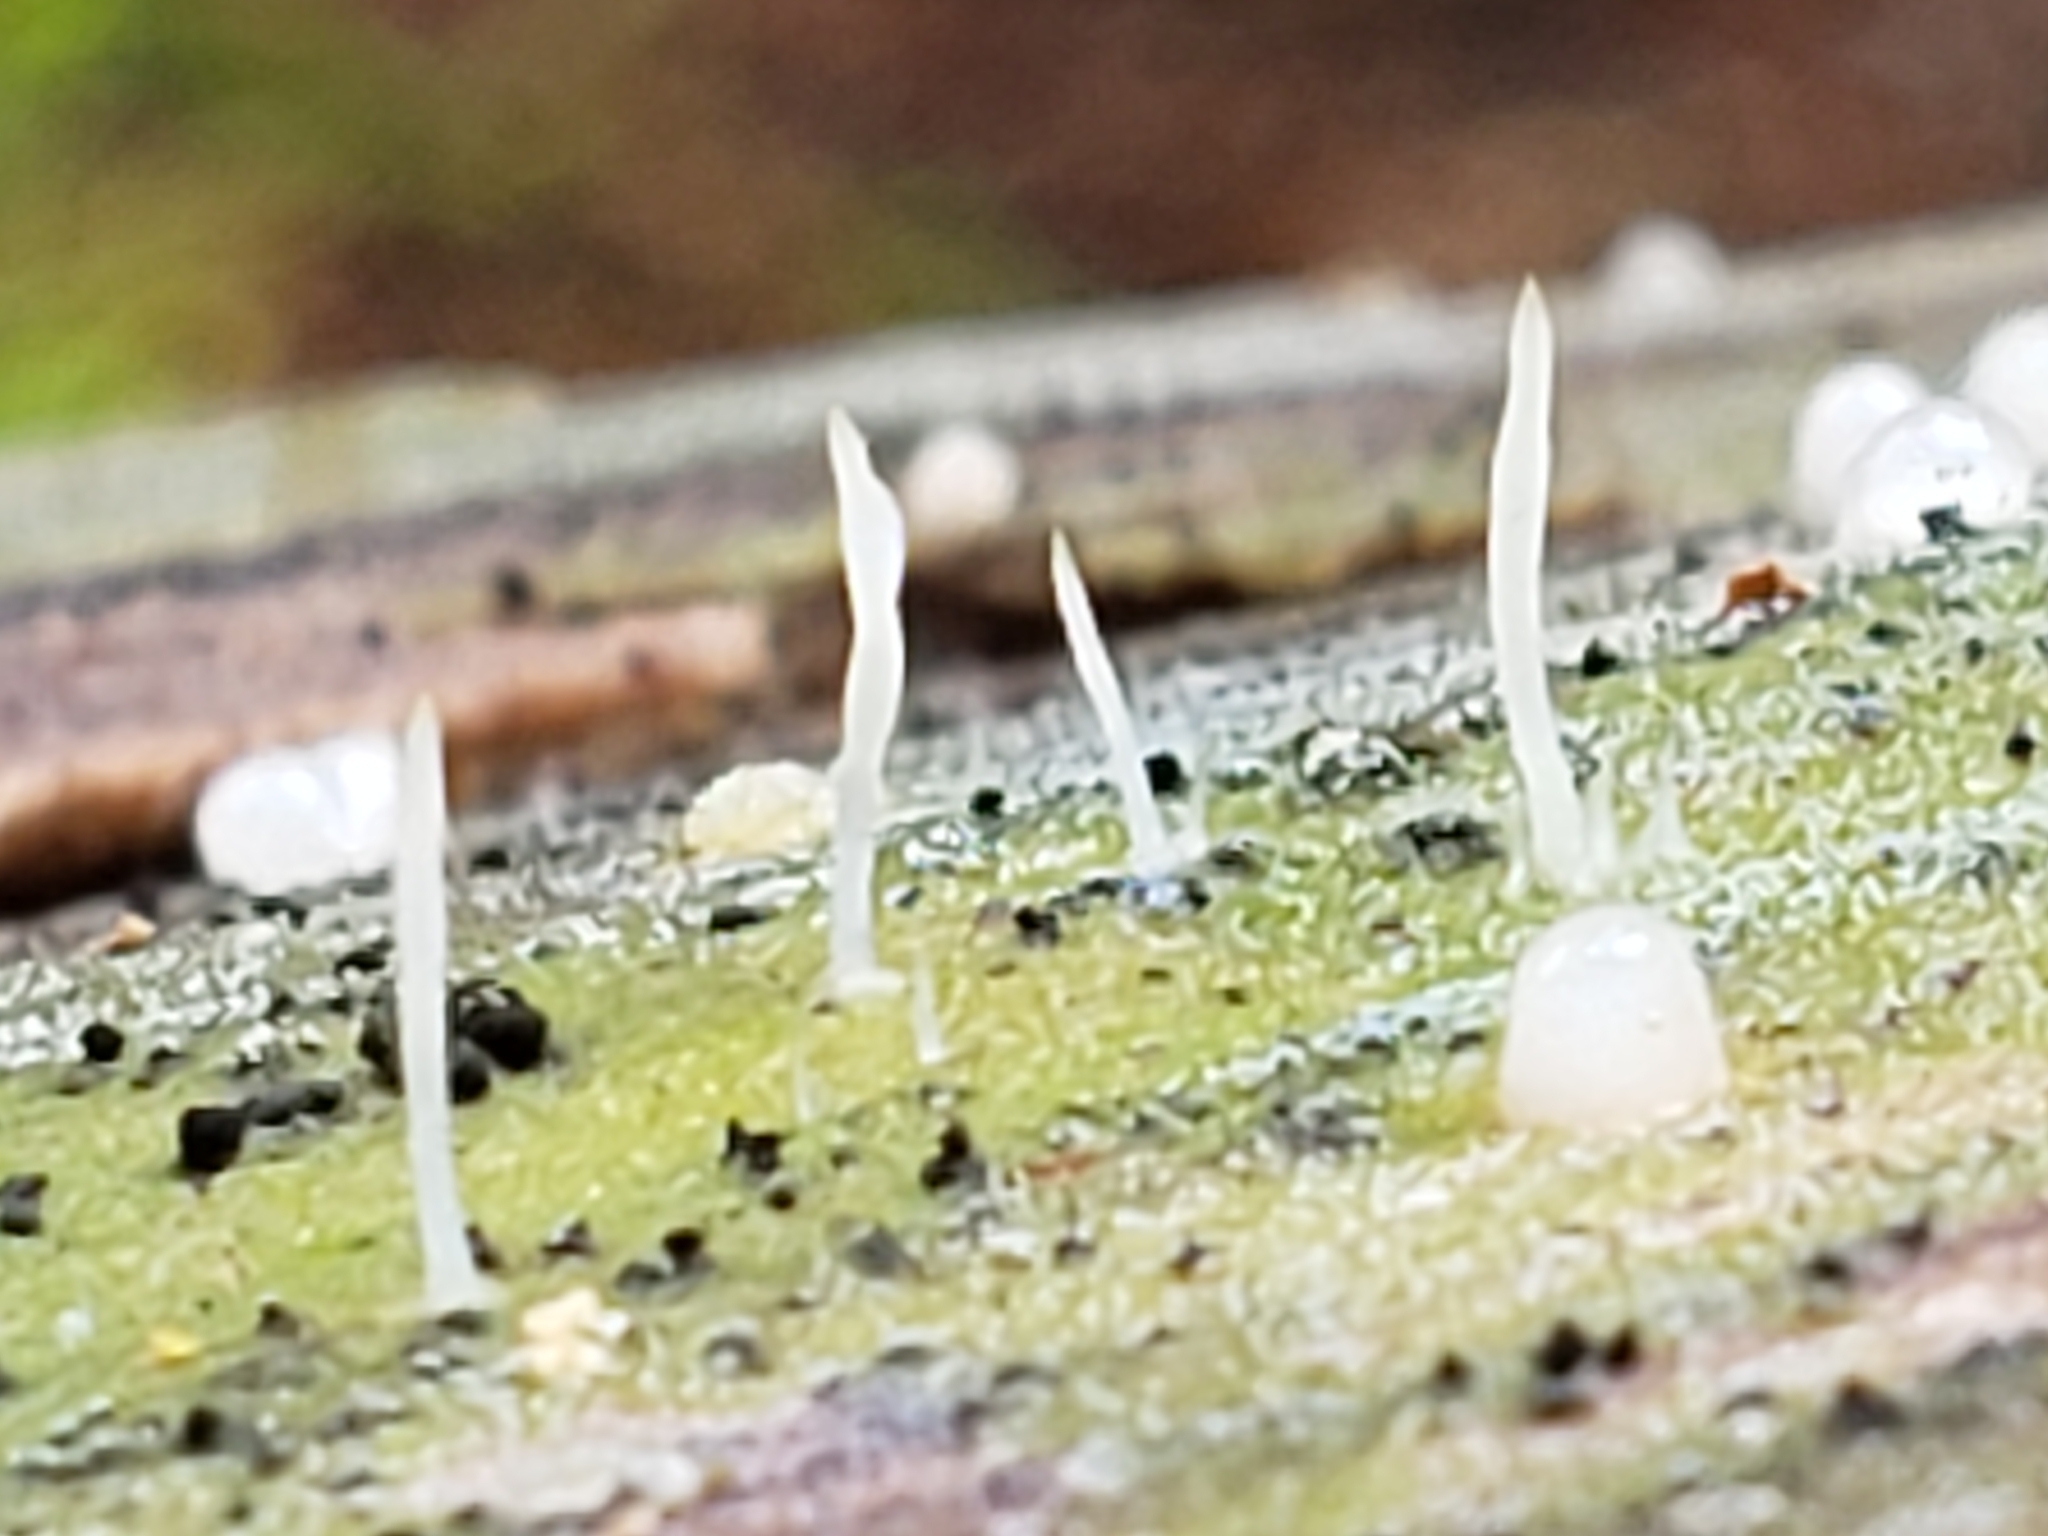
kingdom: Fungi
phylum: Basidiomycota
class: Agaricomycetes
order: Cantharellales
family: Hydnaceae
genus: Multiclavula
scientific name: Multiclavula mucida
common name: White green-algae coral
